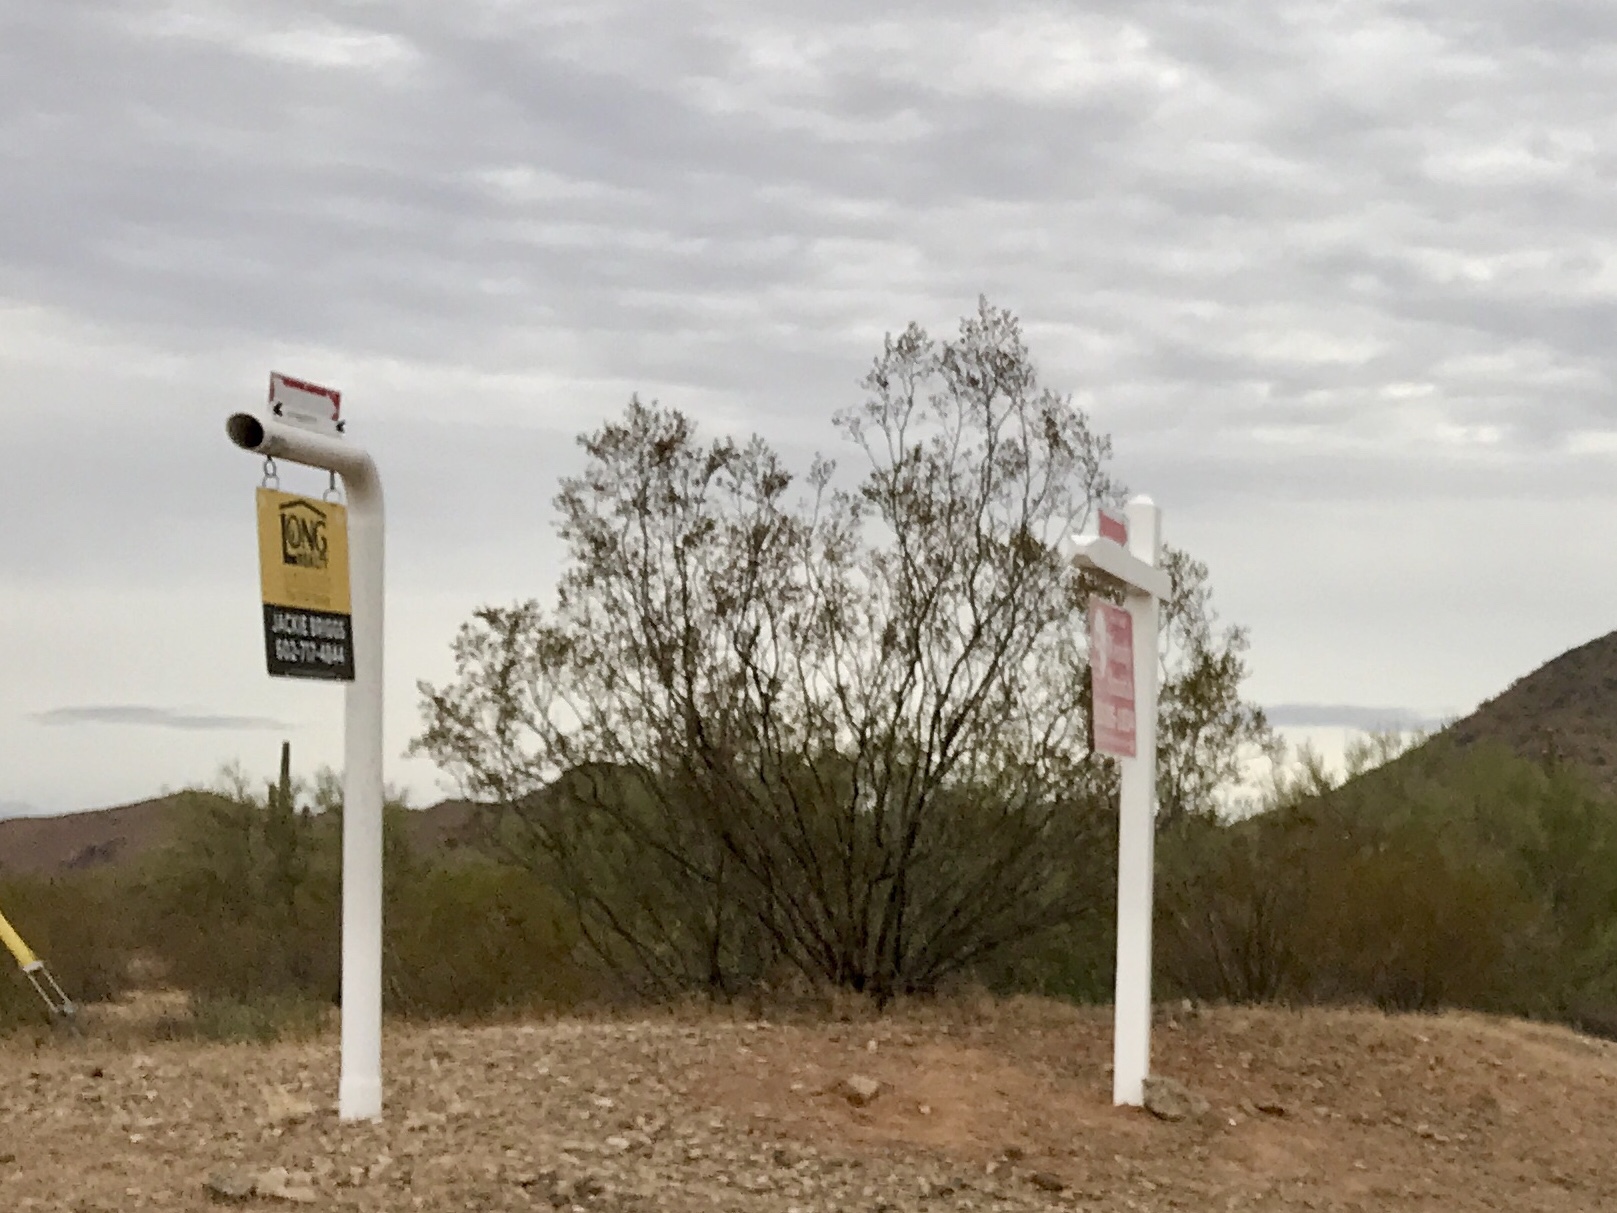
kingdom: Plantae
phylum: Tracheophyta
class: Magnoliopsida
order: Zygophyllales
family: Zygophyllaceae
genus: Larrea
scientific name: Larrea tridentata
